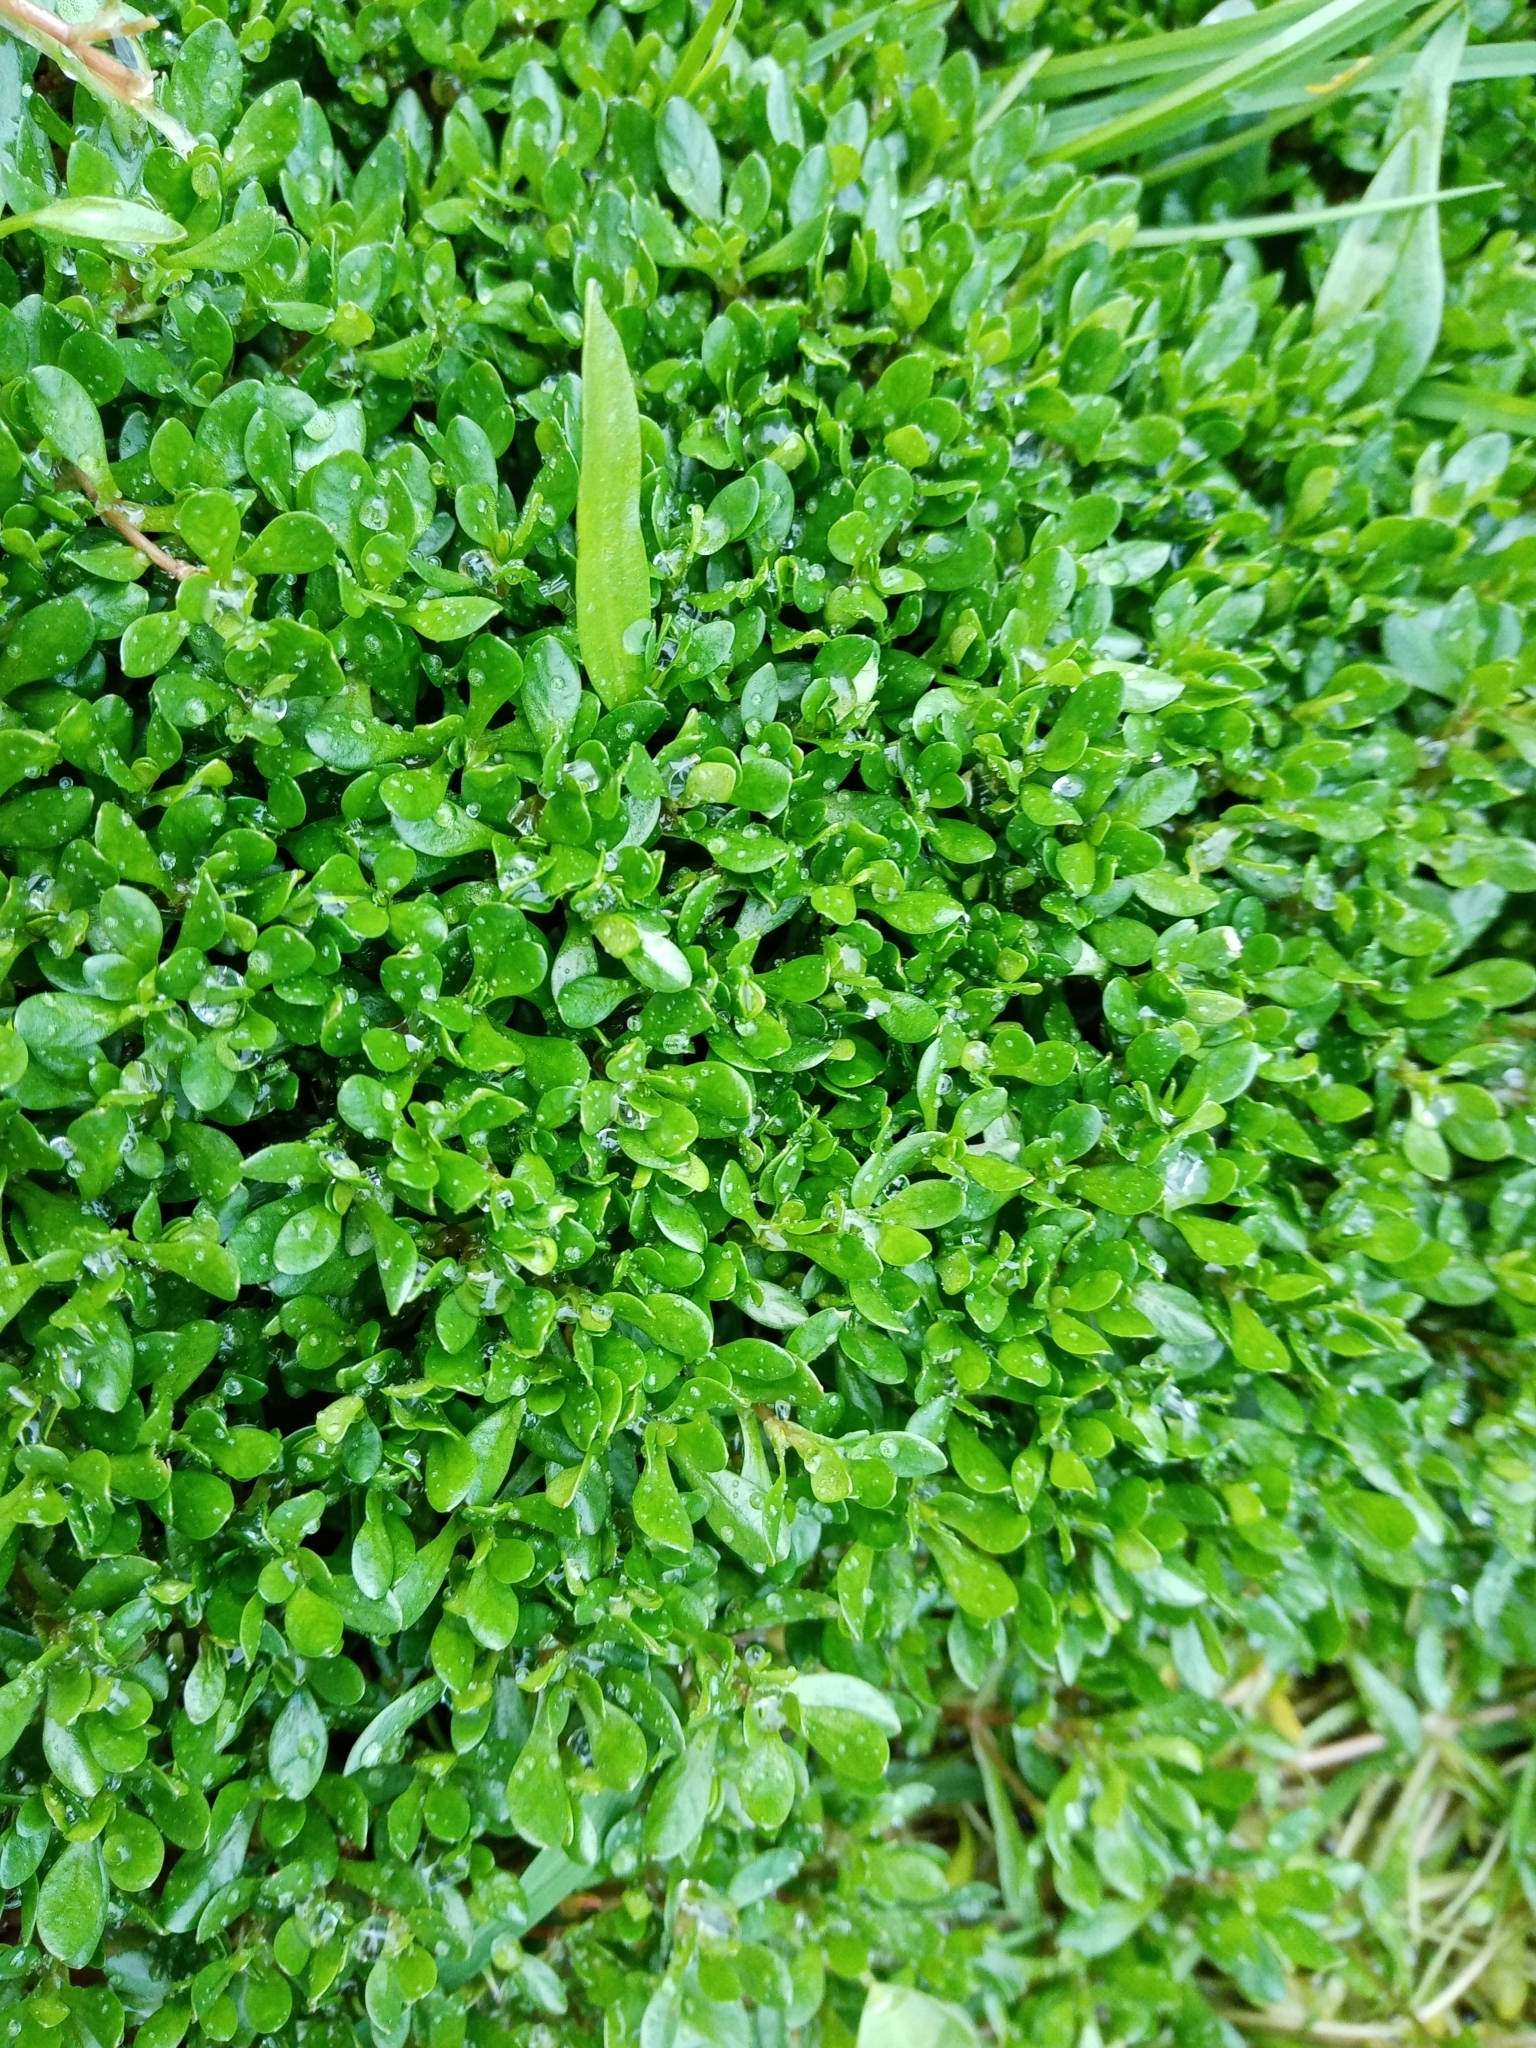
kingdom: Plantae
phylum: Tracheophyta
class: Magnoliopsida
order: Caryophyllales
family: Montiaceae
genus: Montia
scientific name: Montia fontana
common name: Blinks
